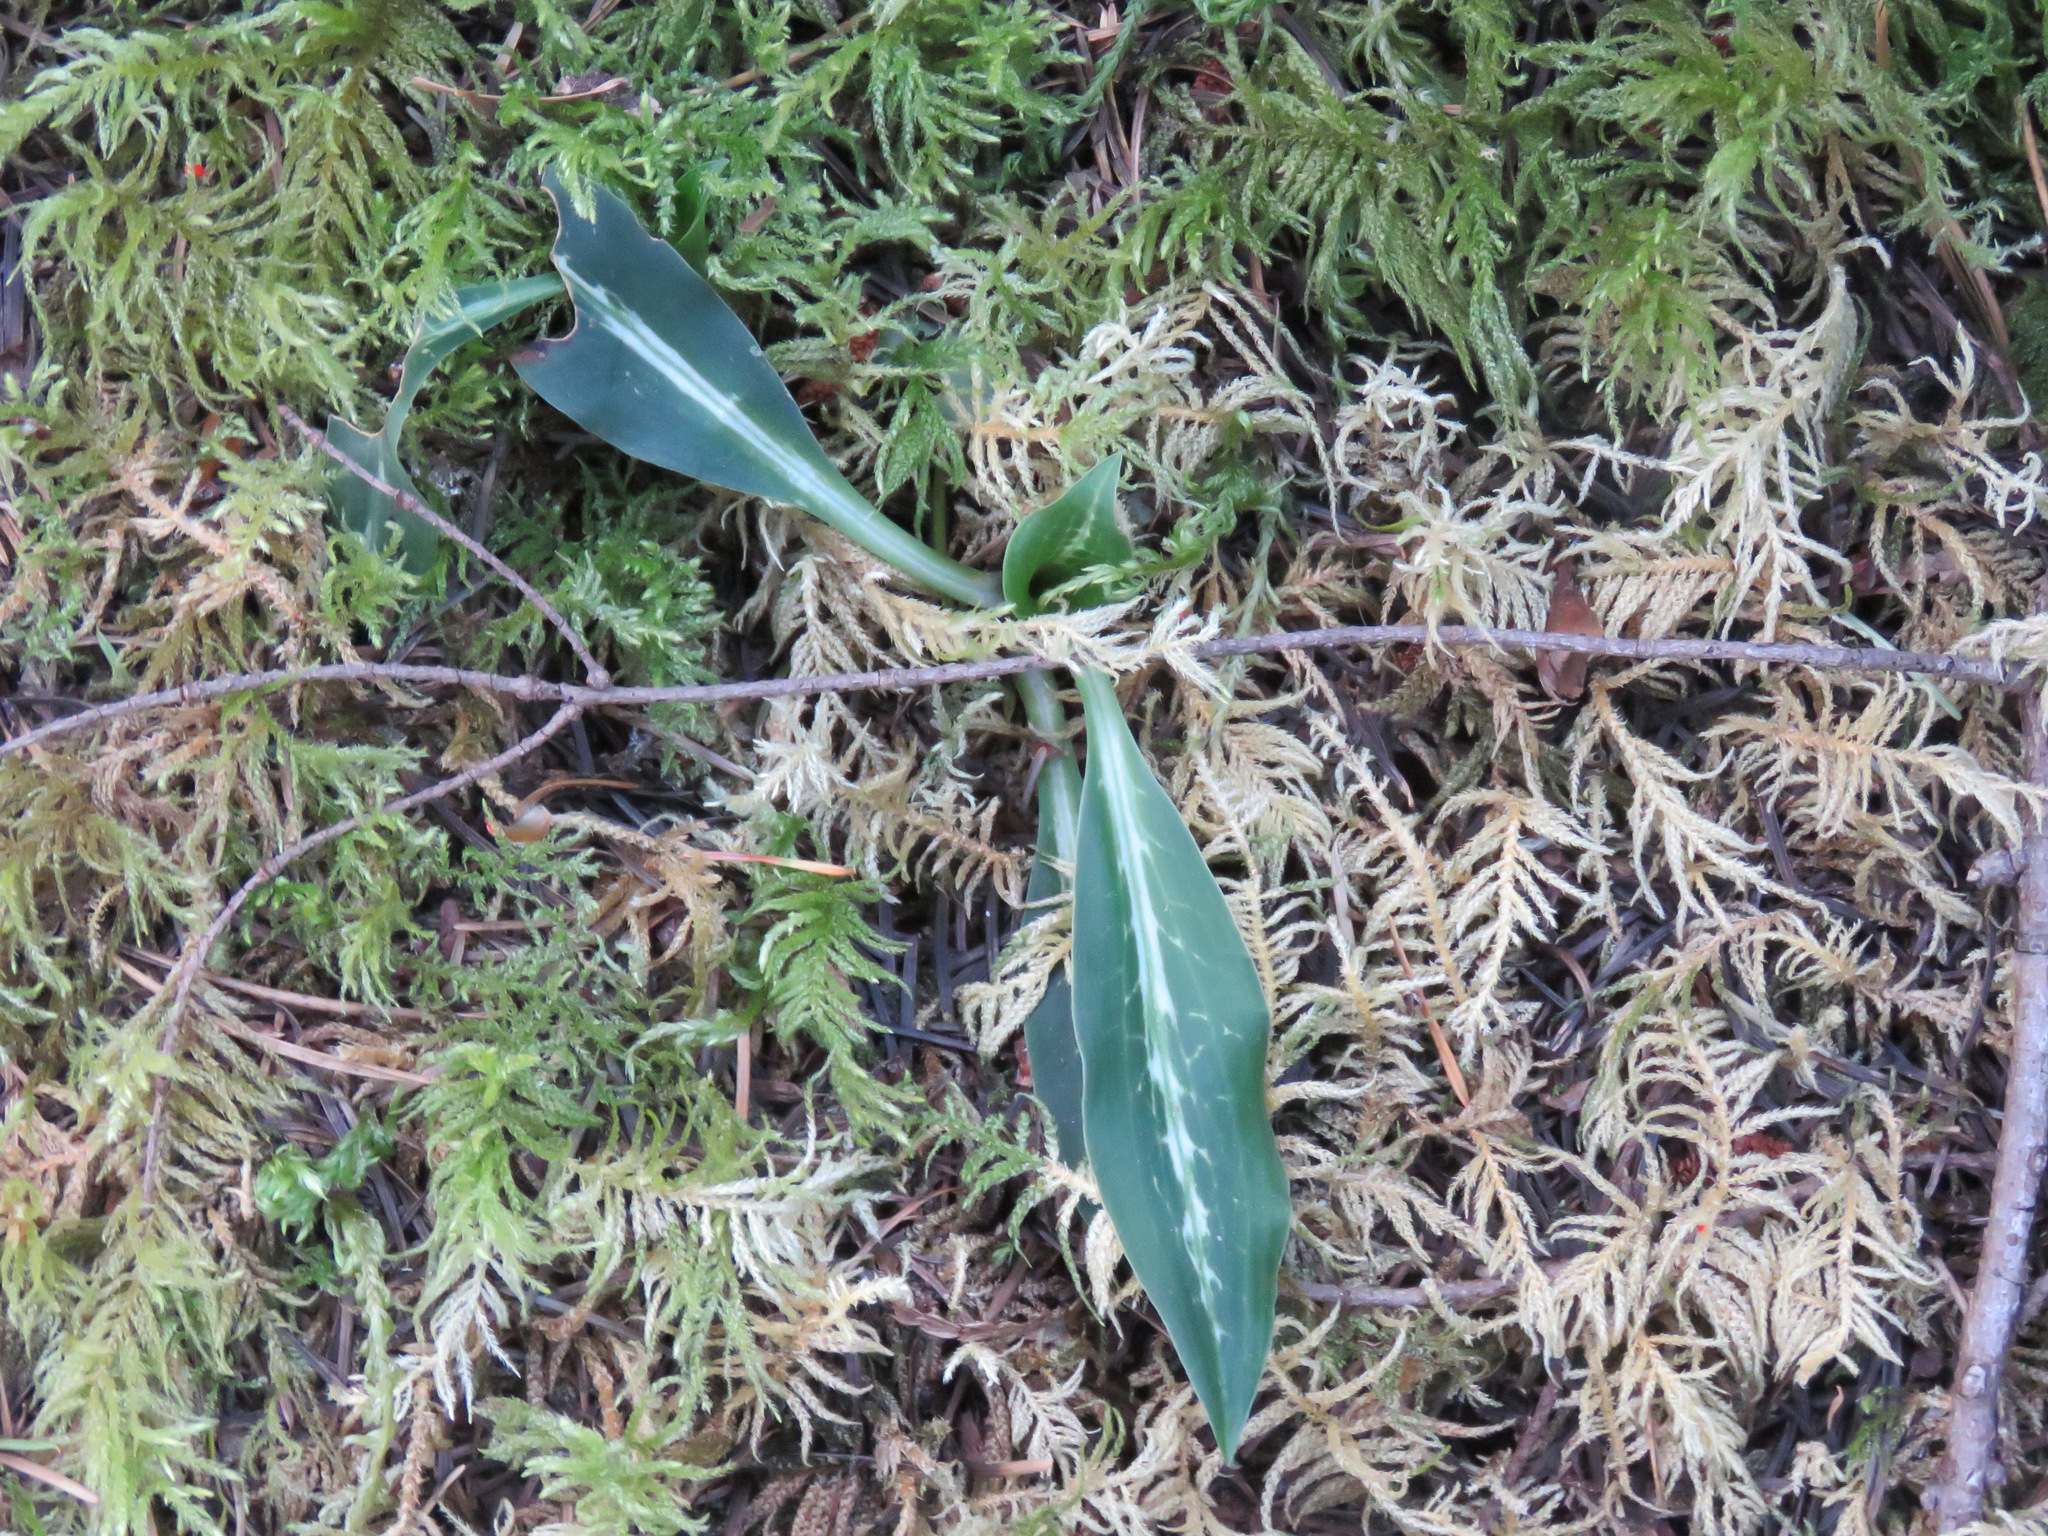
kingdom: Plantae
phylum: Tracheophyta
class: Liliopsida
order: Asparagales
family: Orchidaceae
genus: Goodyera
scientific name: Goodyera oblongifolia
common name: Giant rattlesnake-plantain
